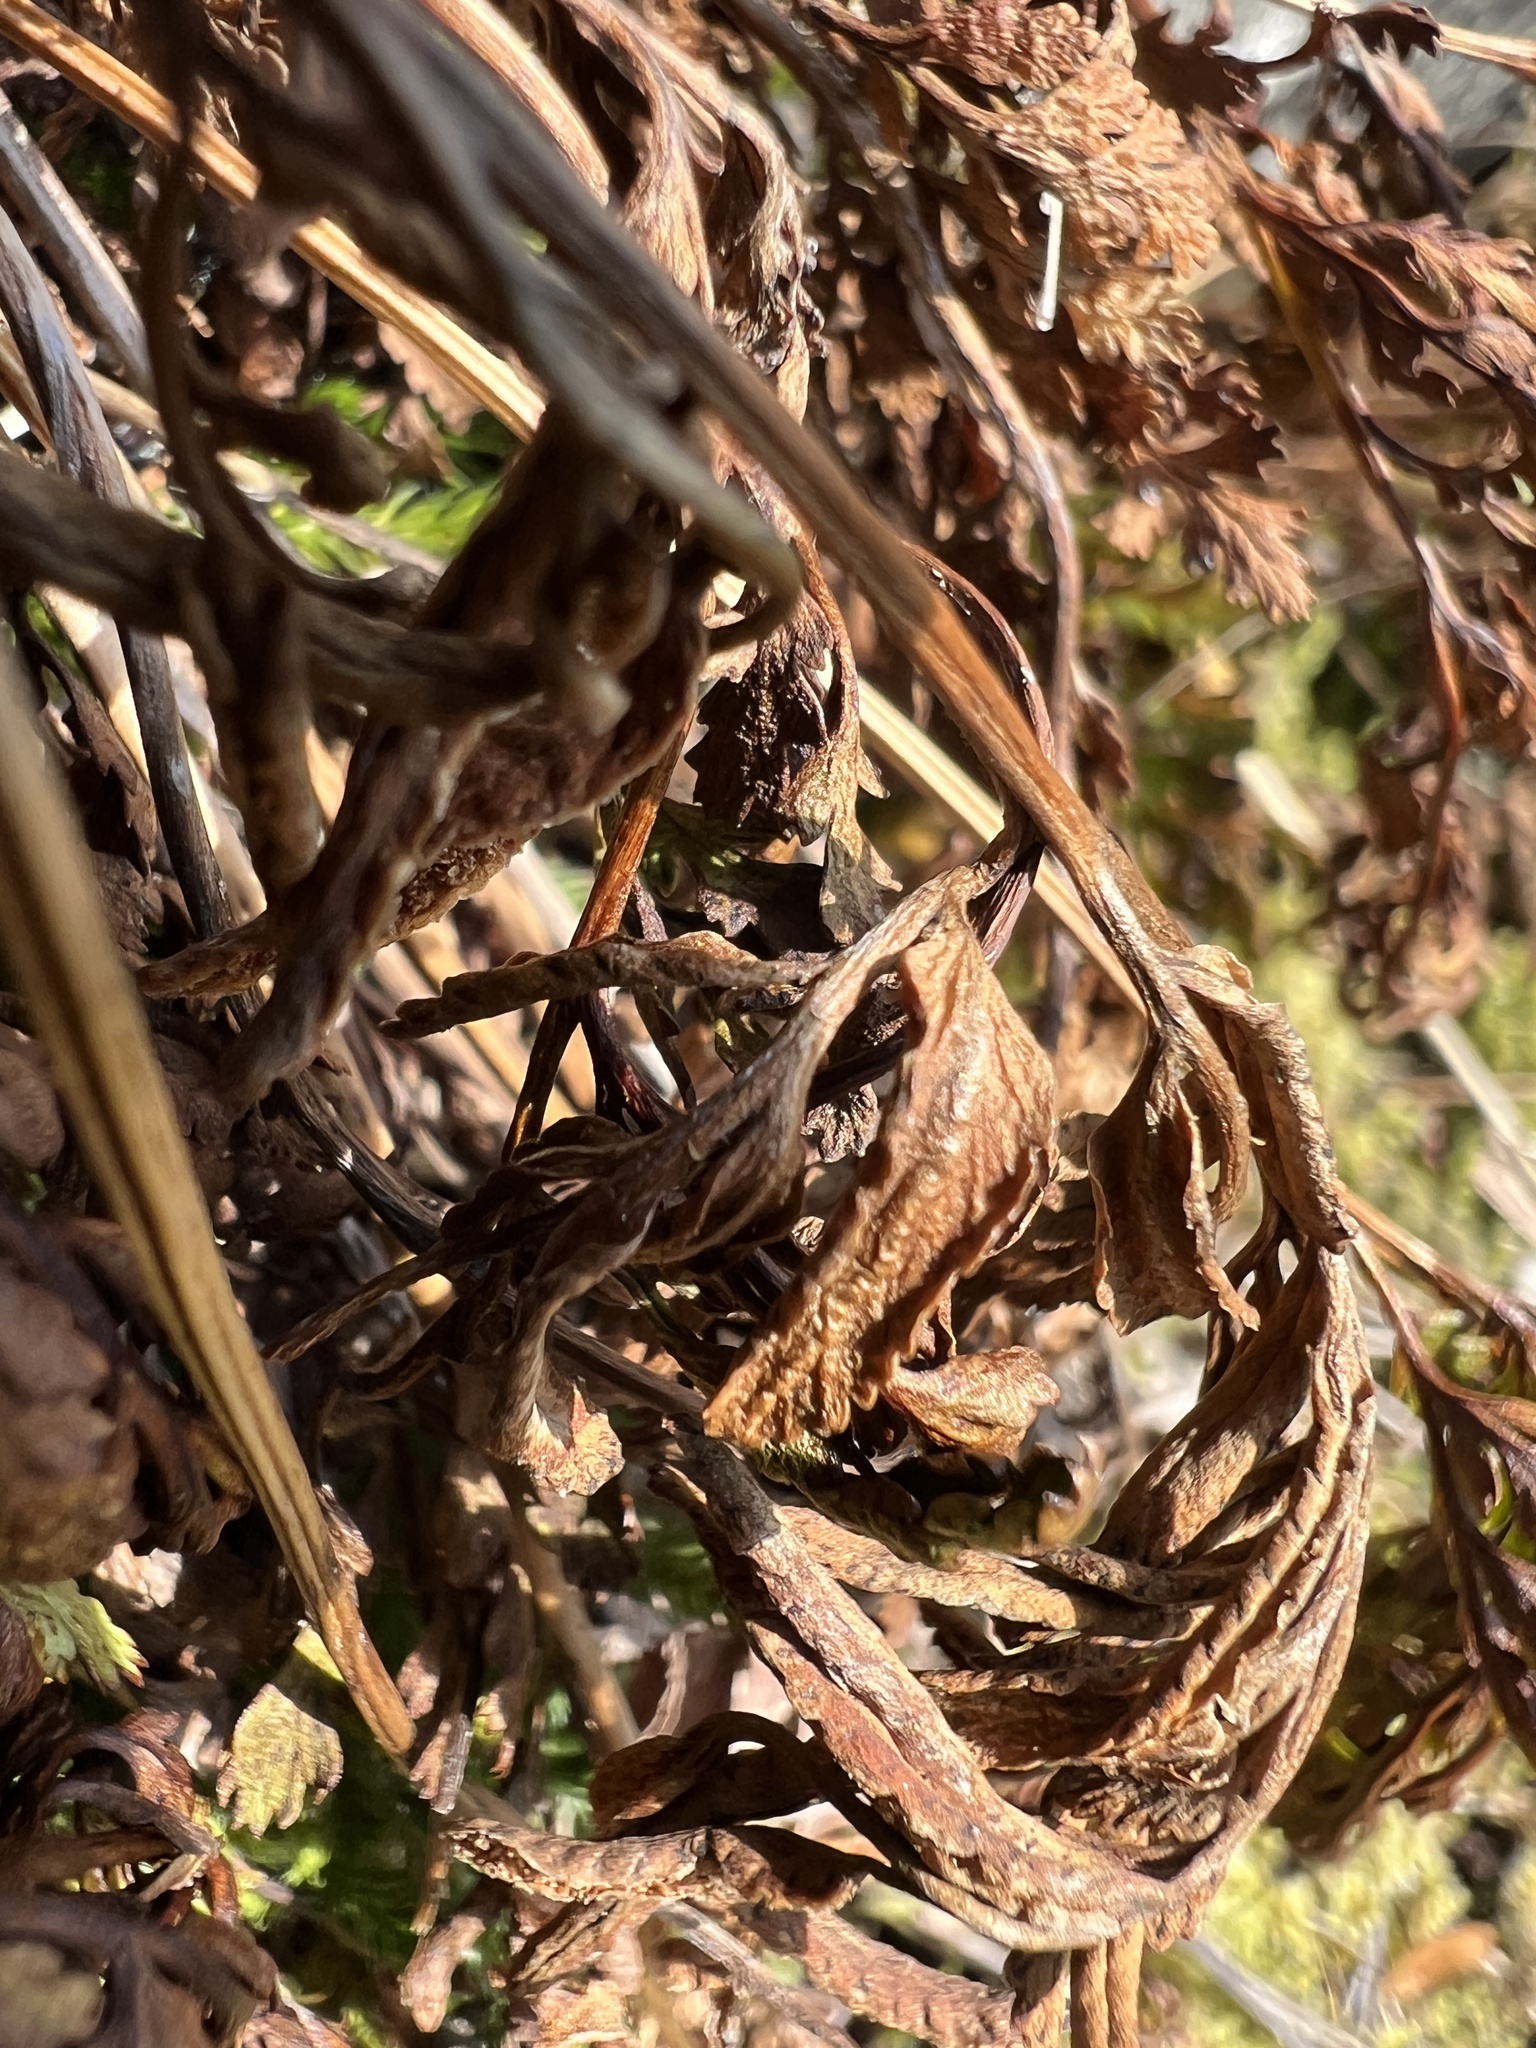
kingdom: Plantae
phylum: Tracheophyta
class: Polypodiopsida
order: Polypodiales
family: Pteridaceae
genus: Cryptogramma
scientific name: Cryptogramma acrostichoides
